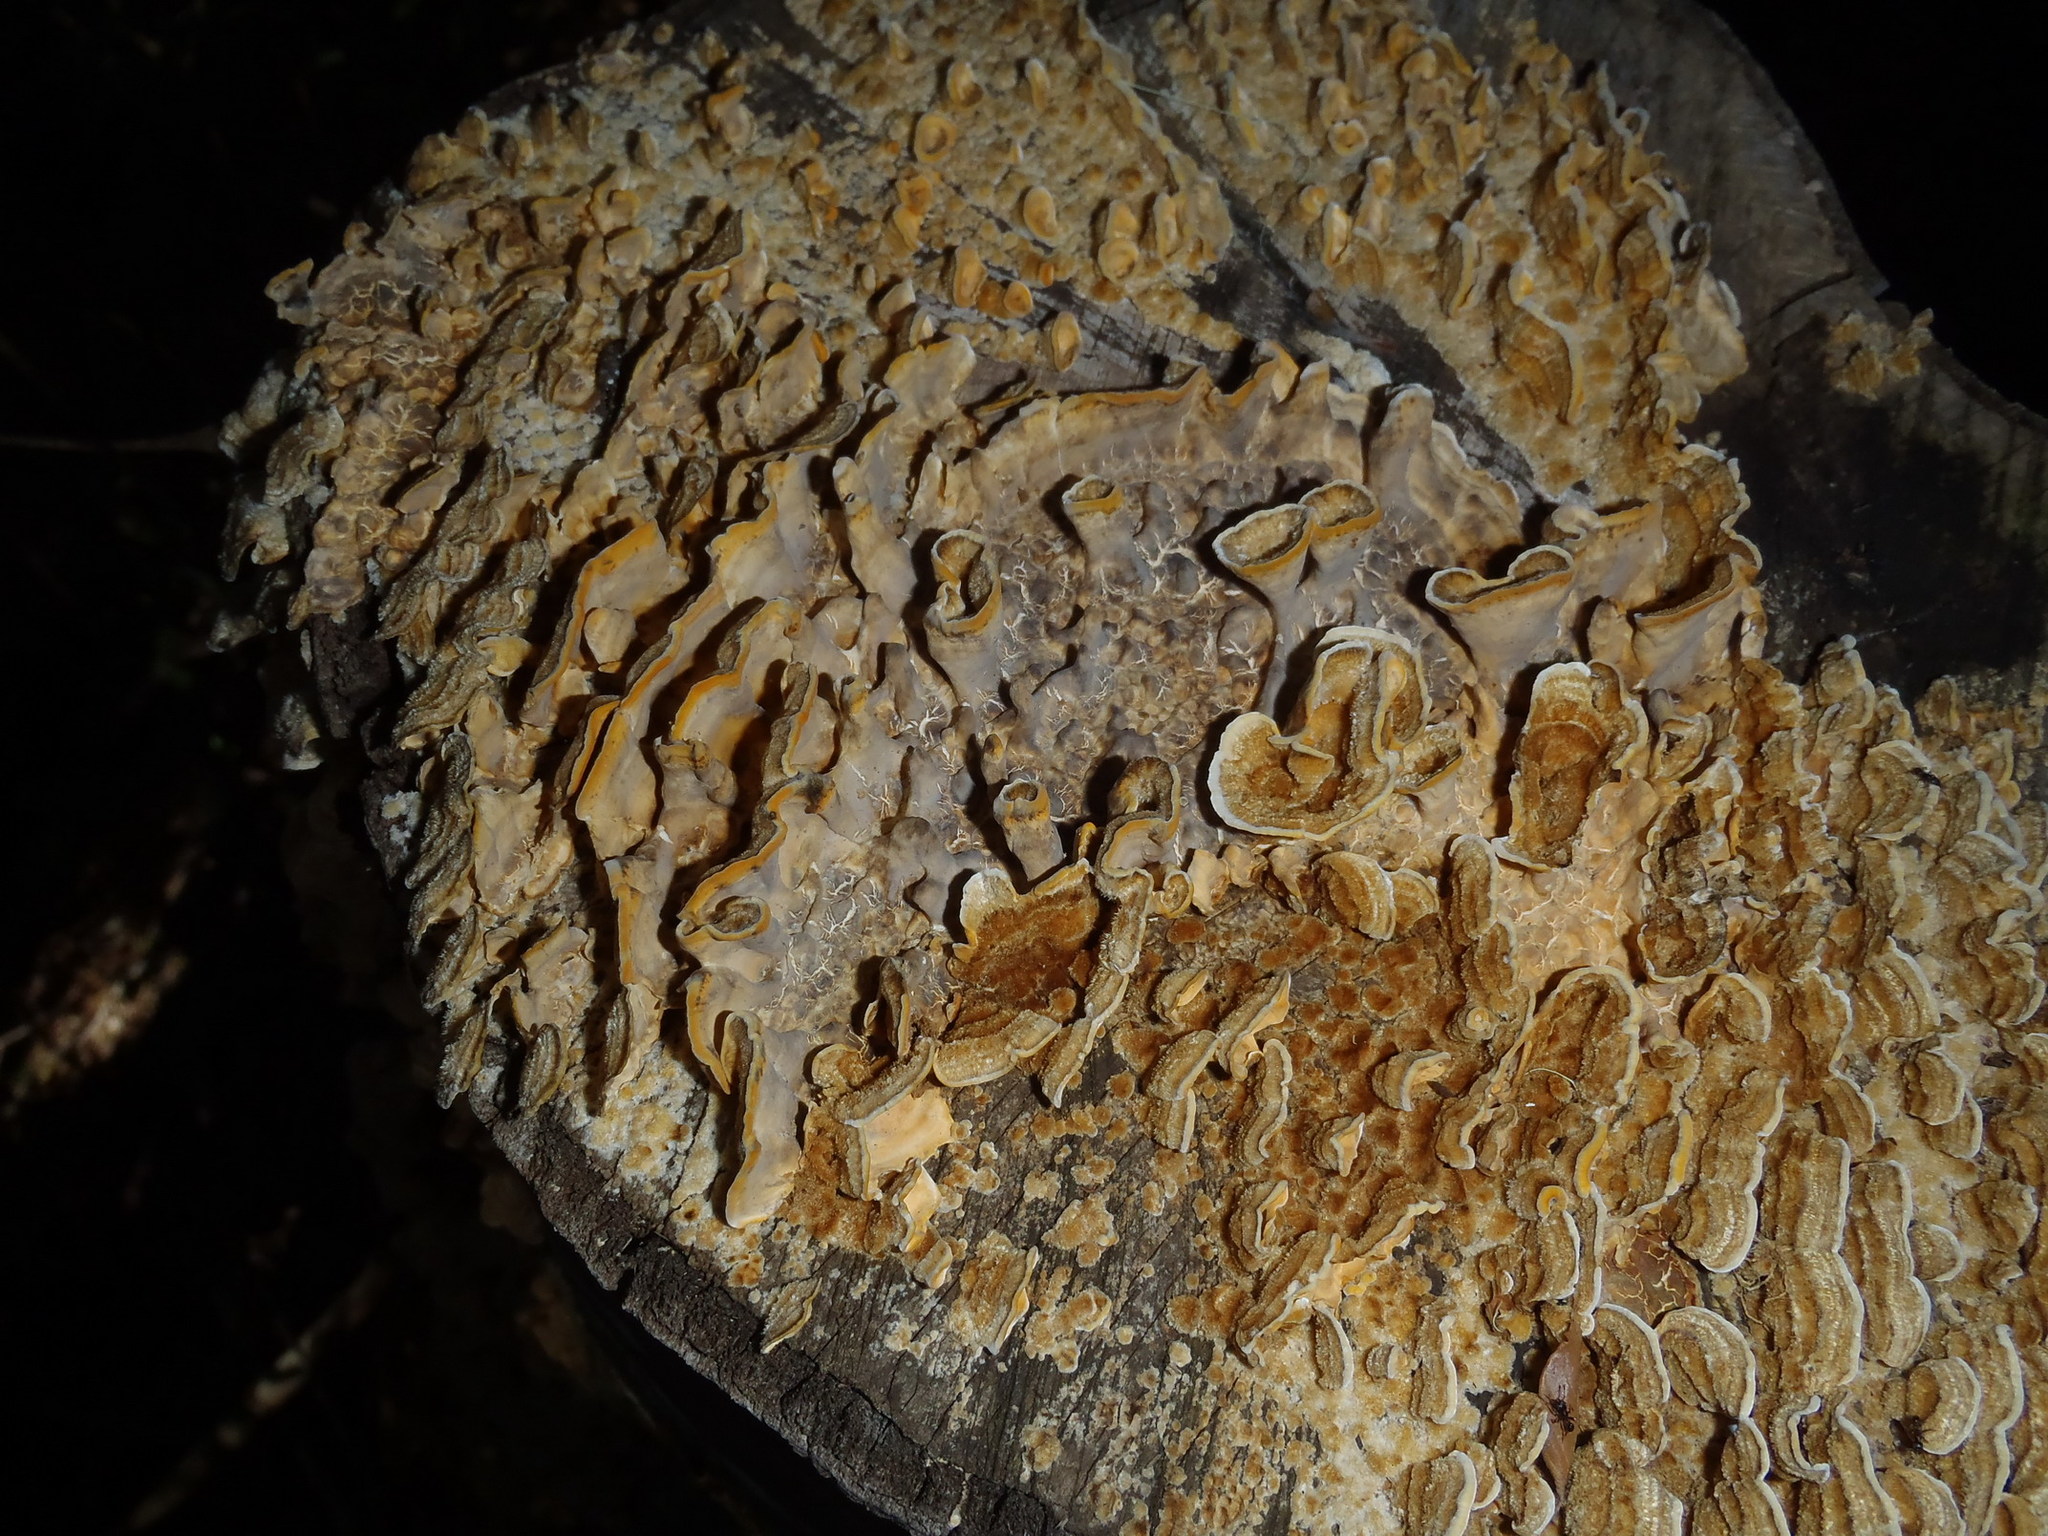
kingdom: Fungi
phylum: Basidiomycota
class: Agaricomycetes
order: Russulales
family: Stereaceae
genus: Stereum
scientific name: Stereum hirsutum
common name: Hairy curtain crust
